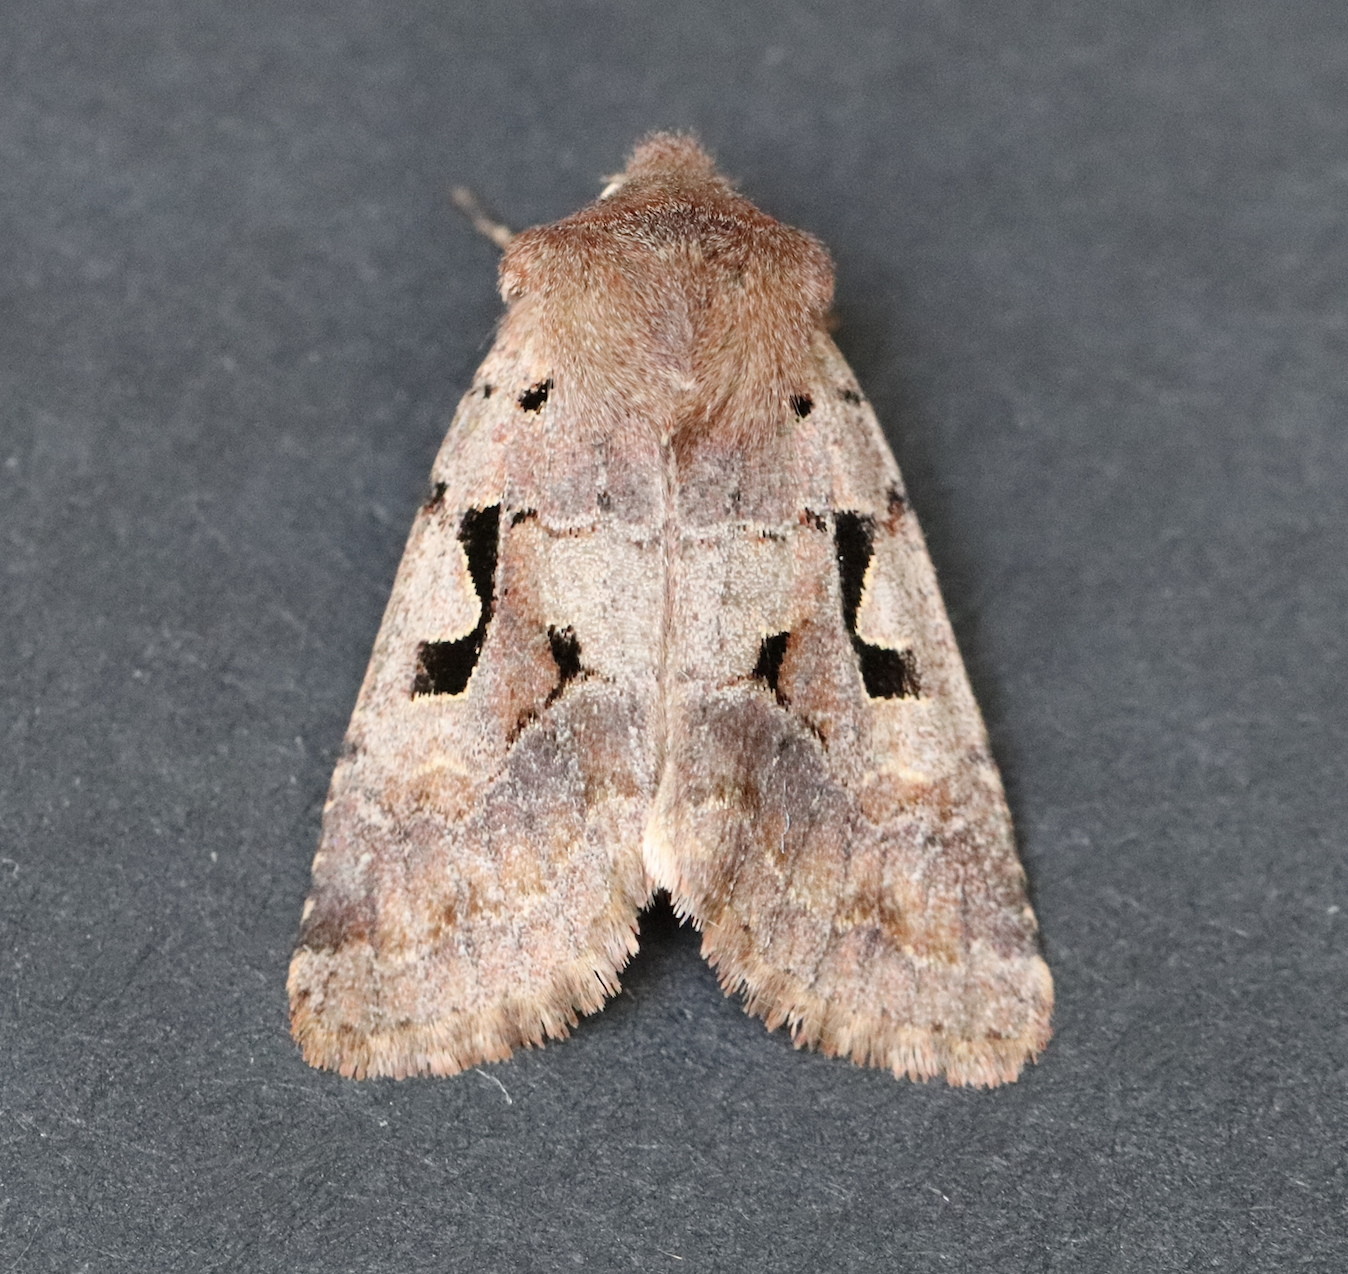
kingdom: Animalia
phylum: Arthropoda
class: Insecta
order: Lepidoptera
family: Noctuidae
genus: Orthosia
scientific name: Orthosia gothica
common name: Hebrew character
